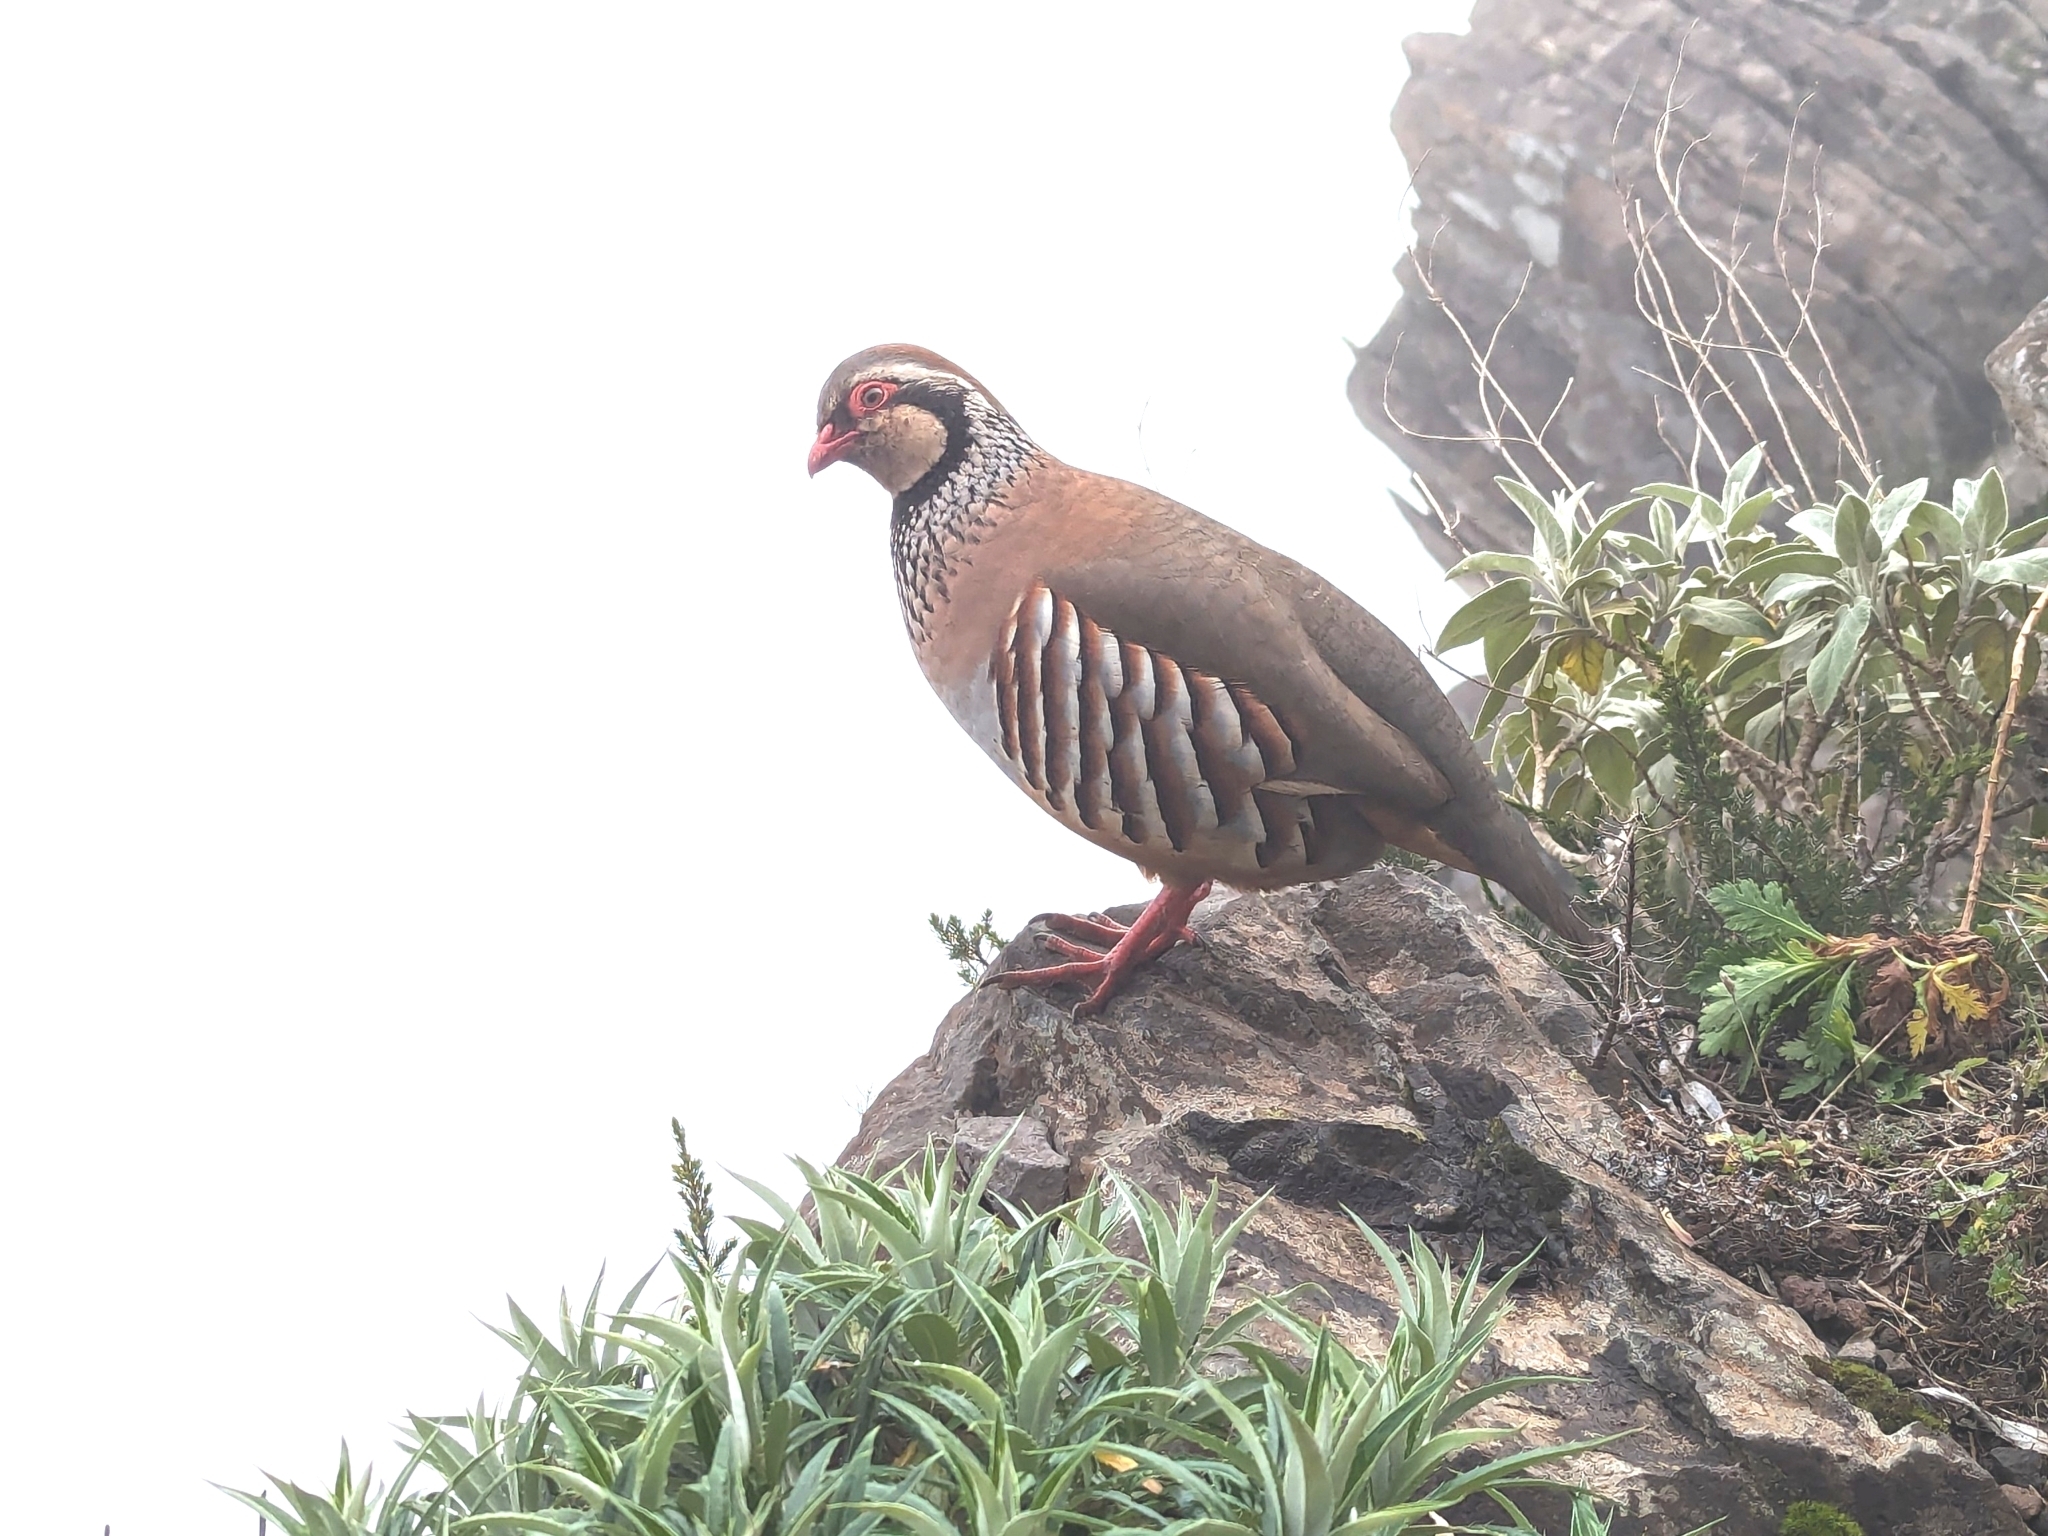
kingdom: Animalia
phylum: Chordata
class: Aves
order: Galliformes
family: Phasianidae
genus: Alectoris
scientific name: Alectoris rufa
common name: Red-legged partridge
